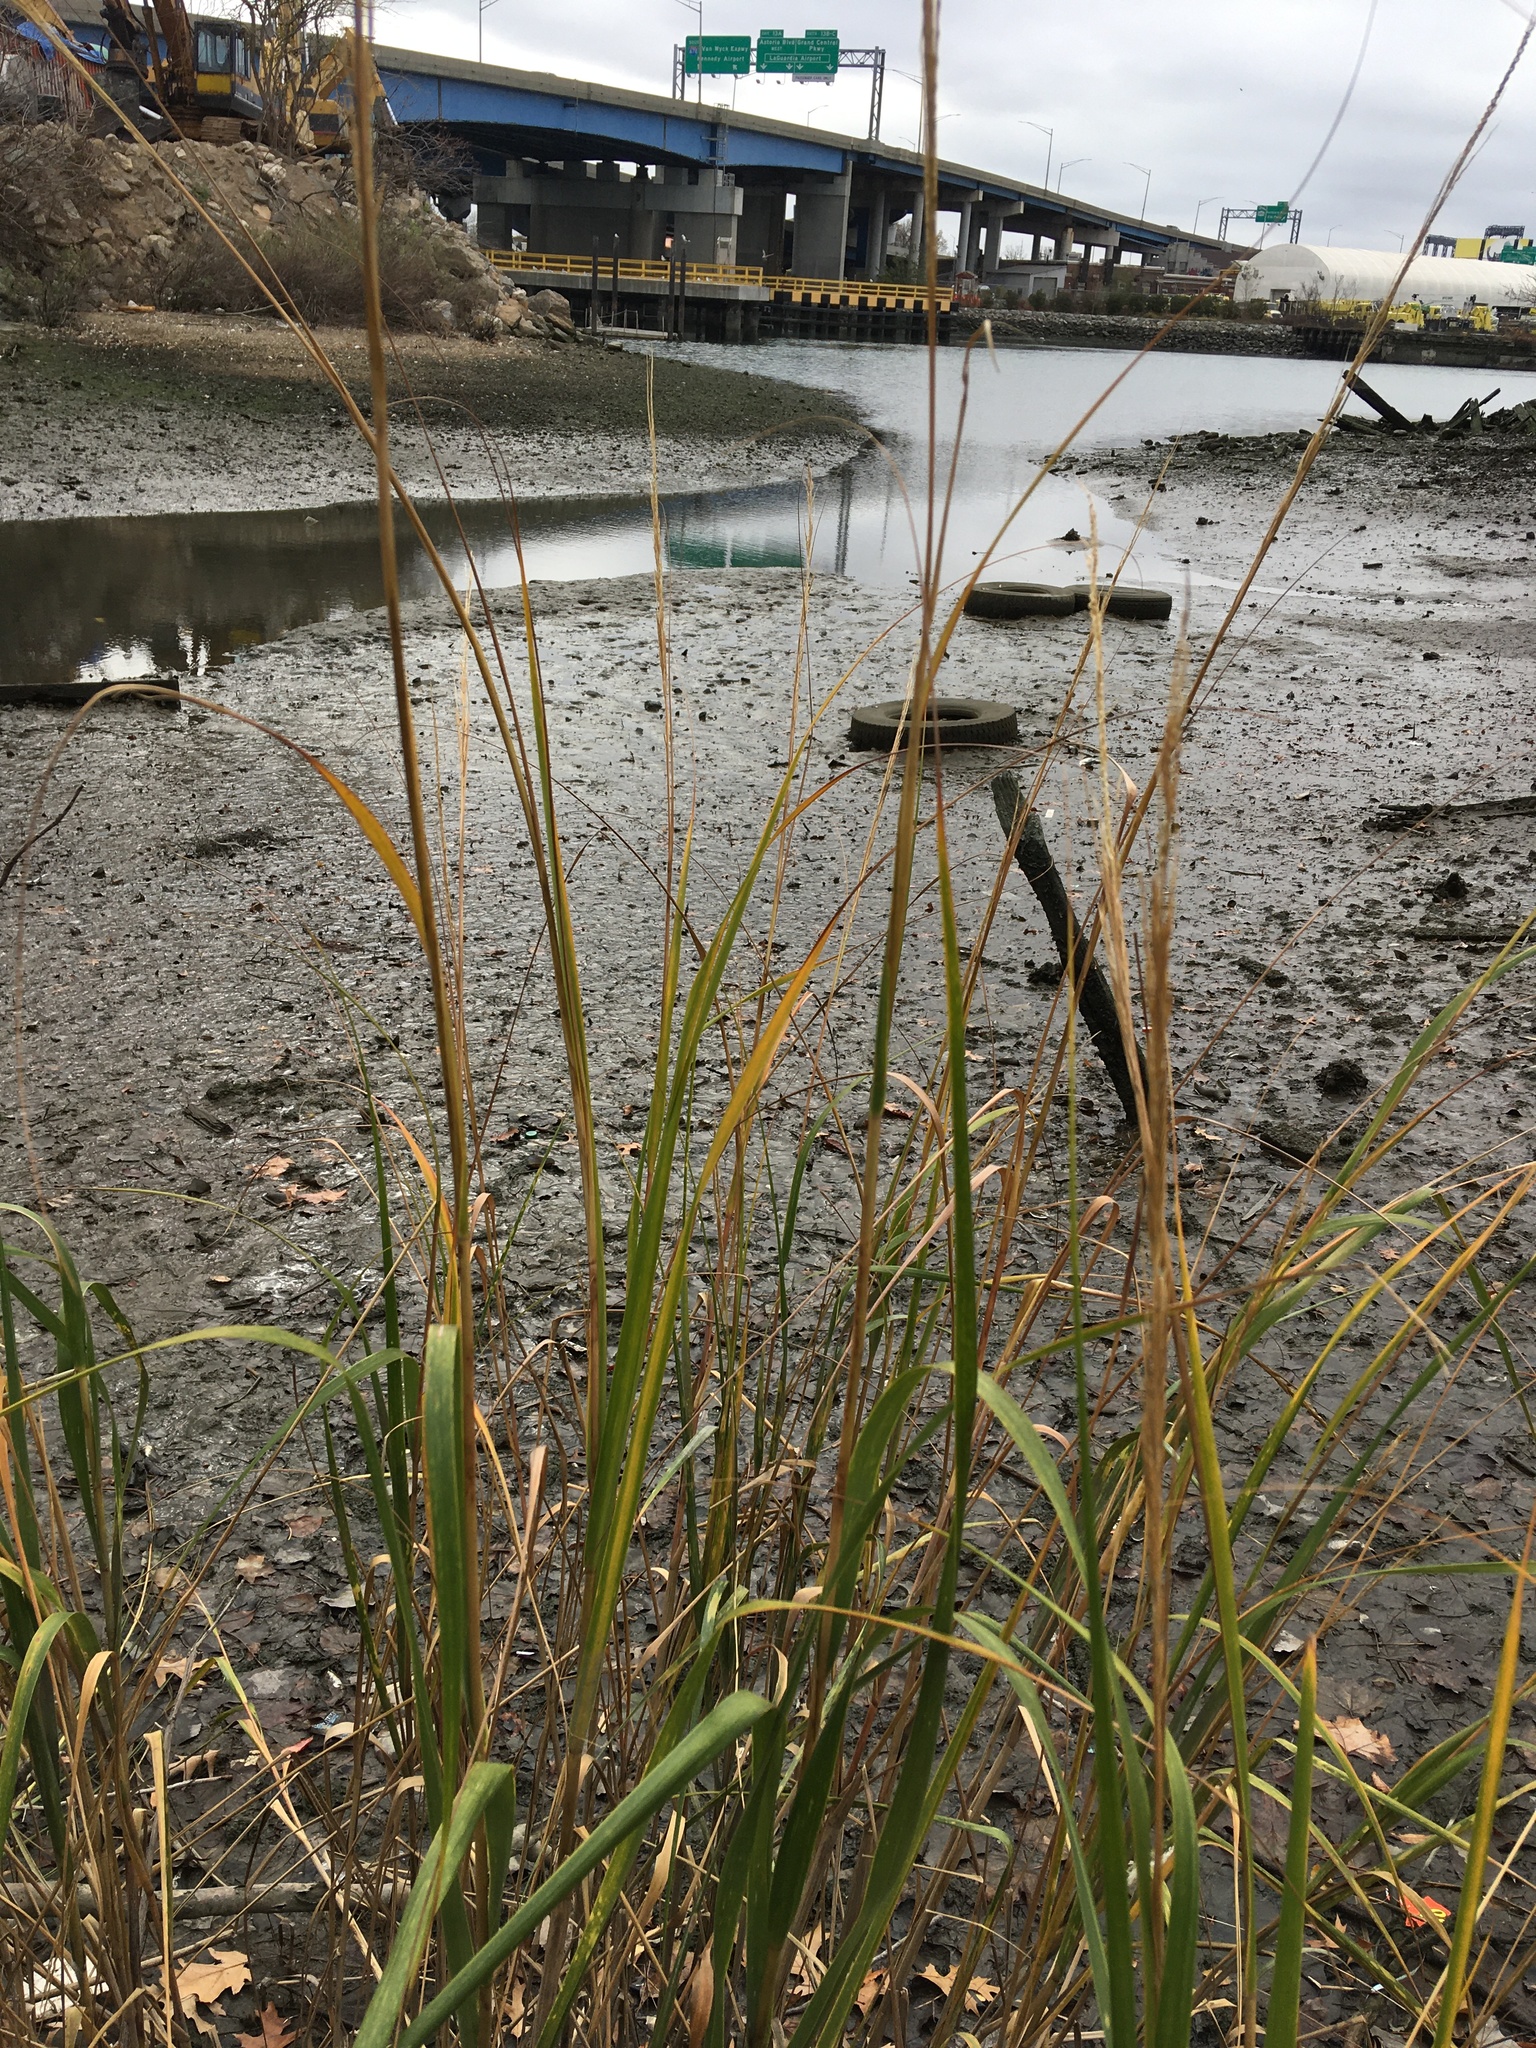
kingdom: Plantae
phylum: Tracheophyta
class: Liliopsida
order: Poales
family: Poaceae
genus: Sporobolus
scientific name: Sporobolus alterniflorus
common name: Atlantic cordgrass
